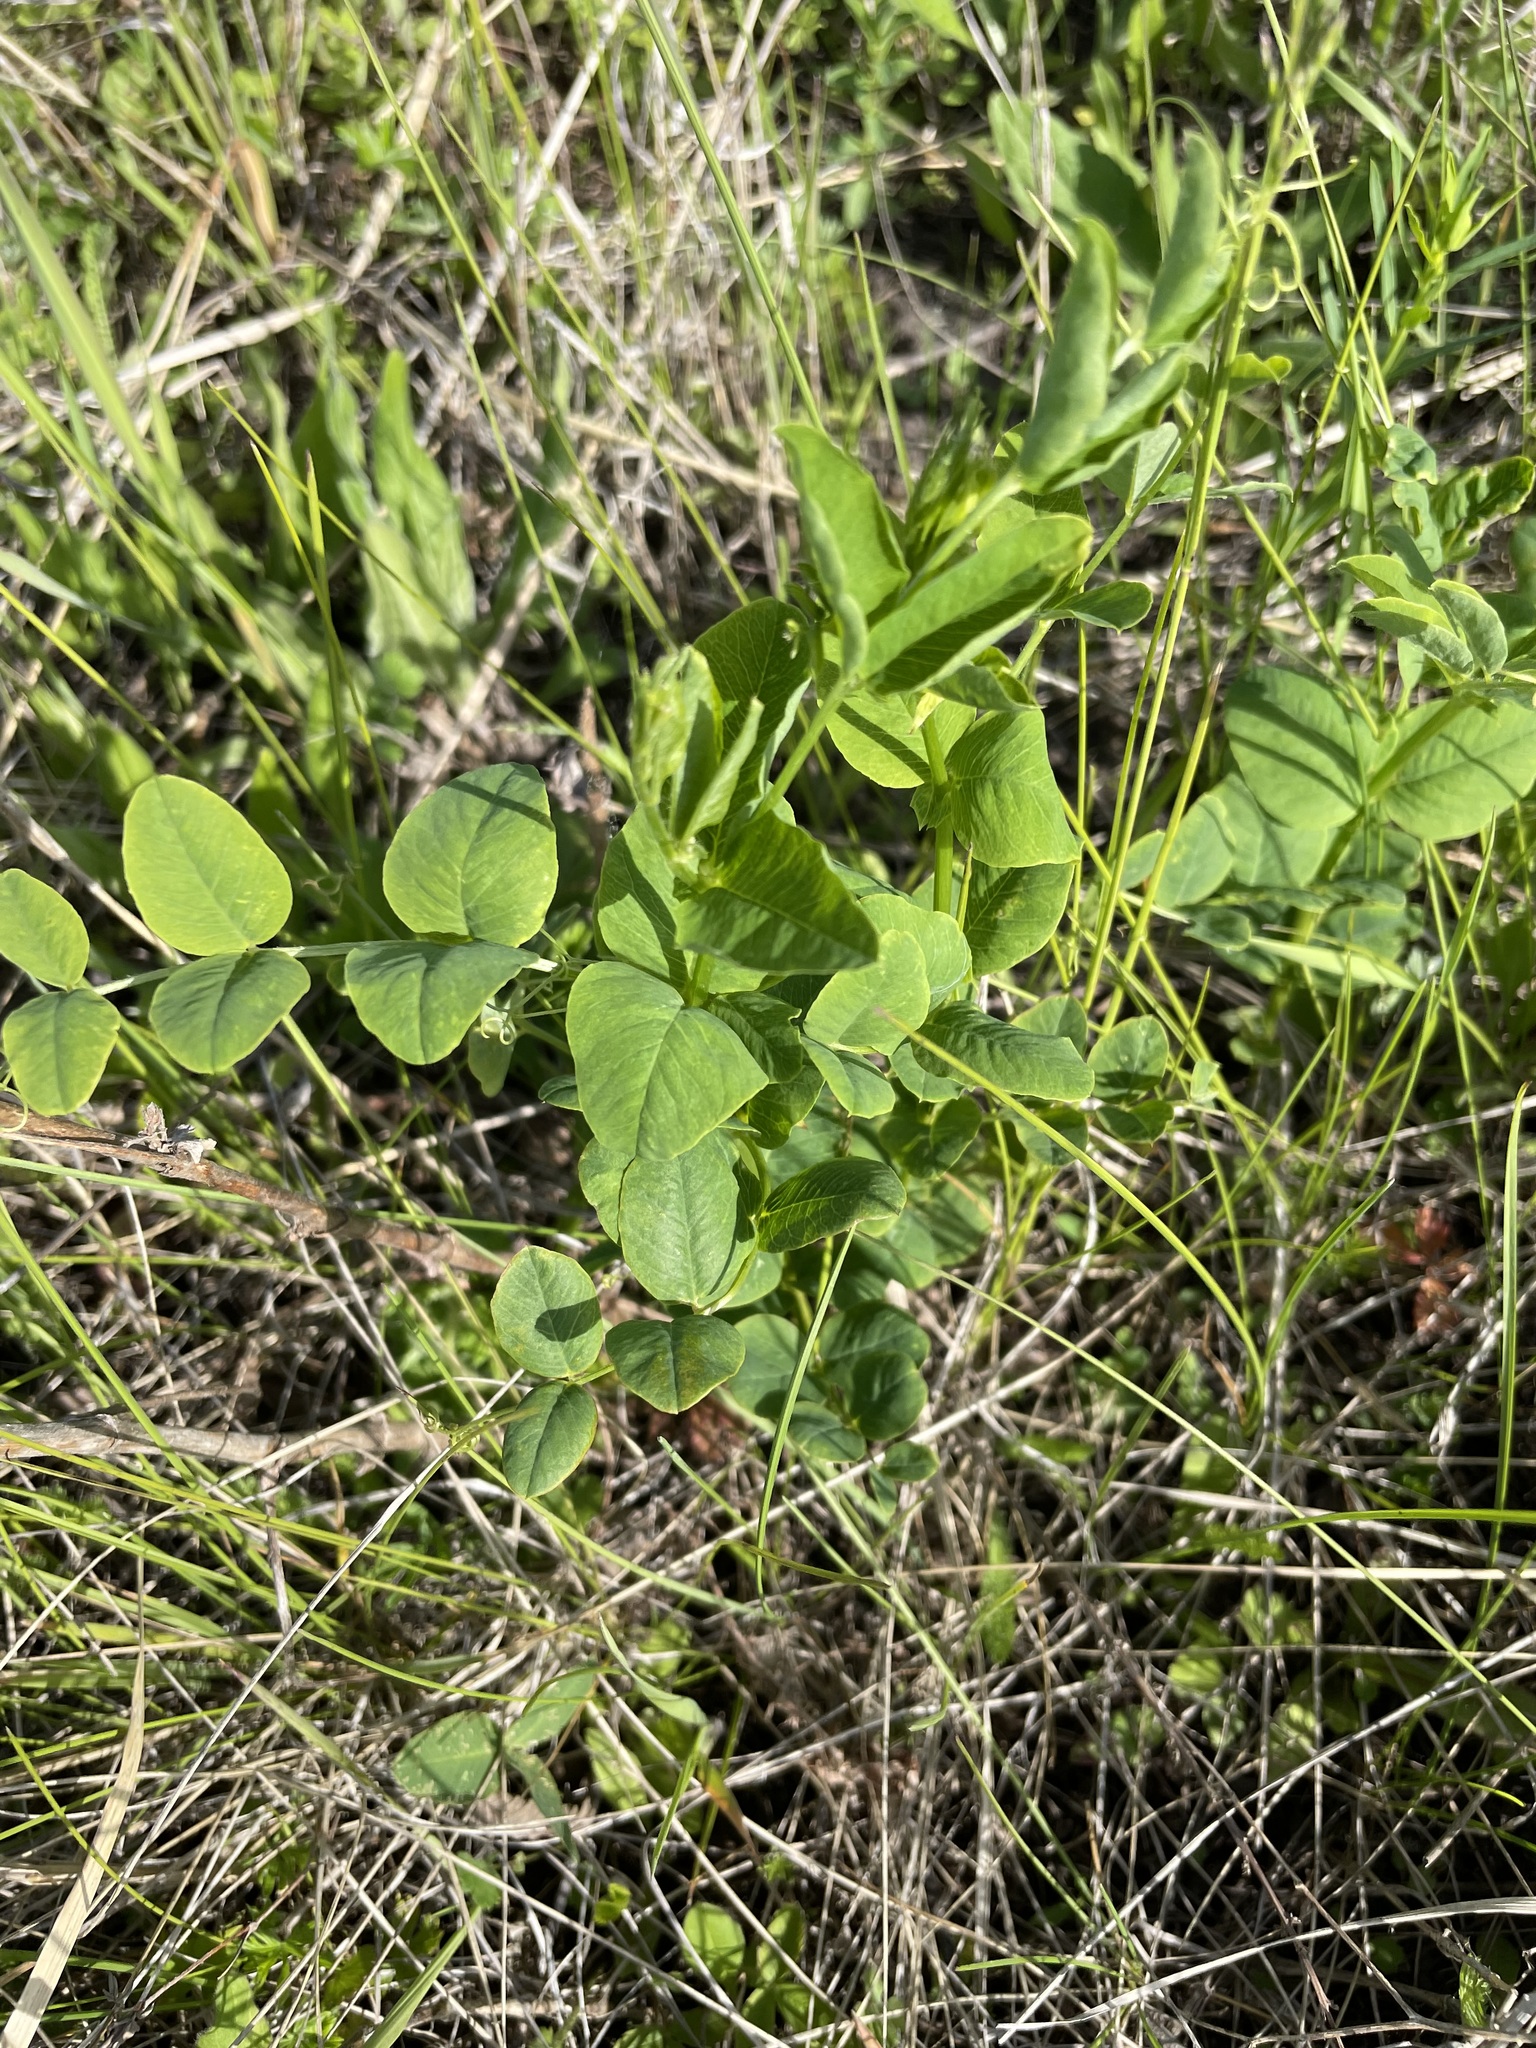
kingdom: Plantae
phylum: Tracheophyta
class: Magnoliopsida
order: Fabales
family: Fabaceae
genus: Vicia
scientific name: Vicia pisiformis
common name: Pale-flower vetch
